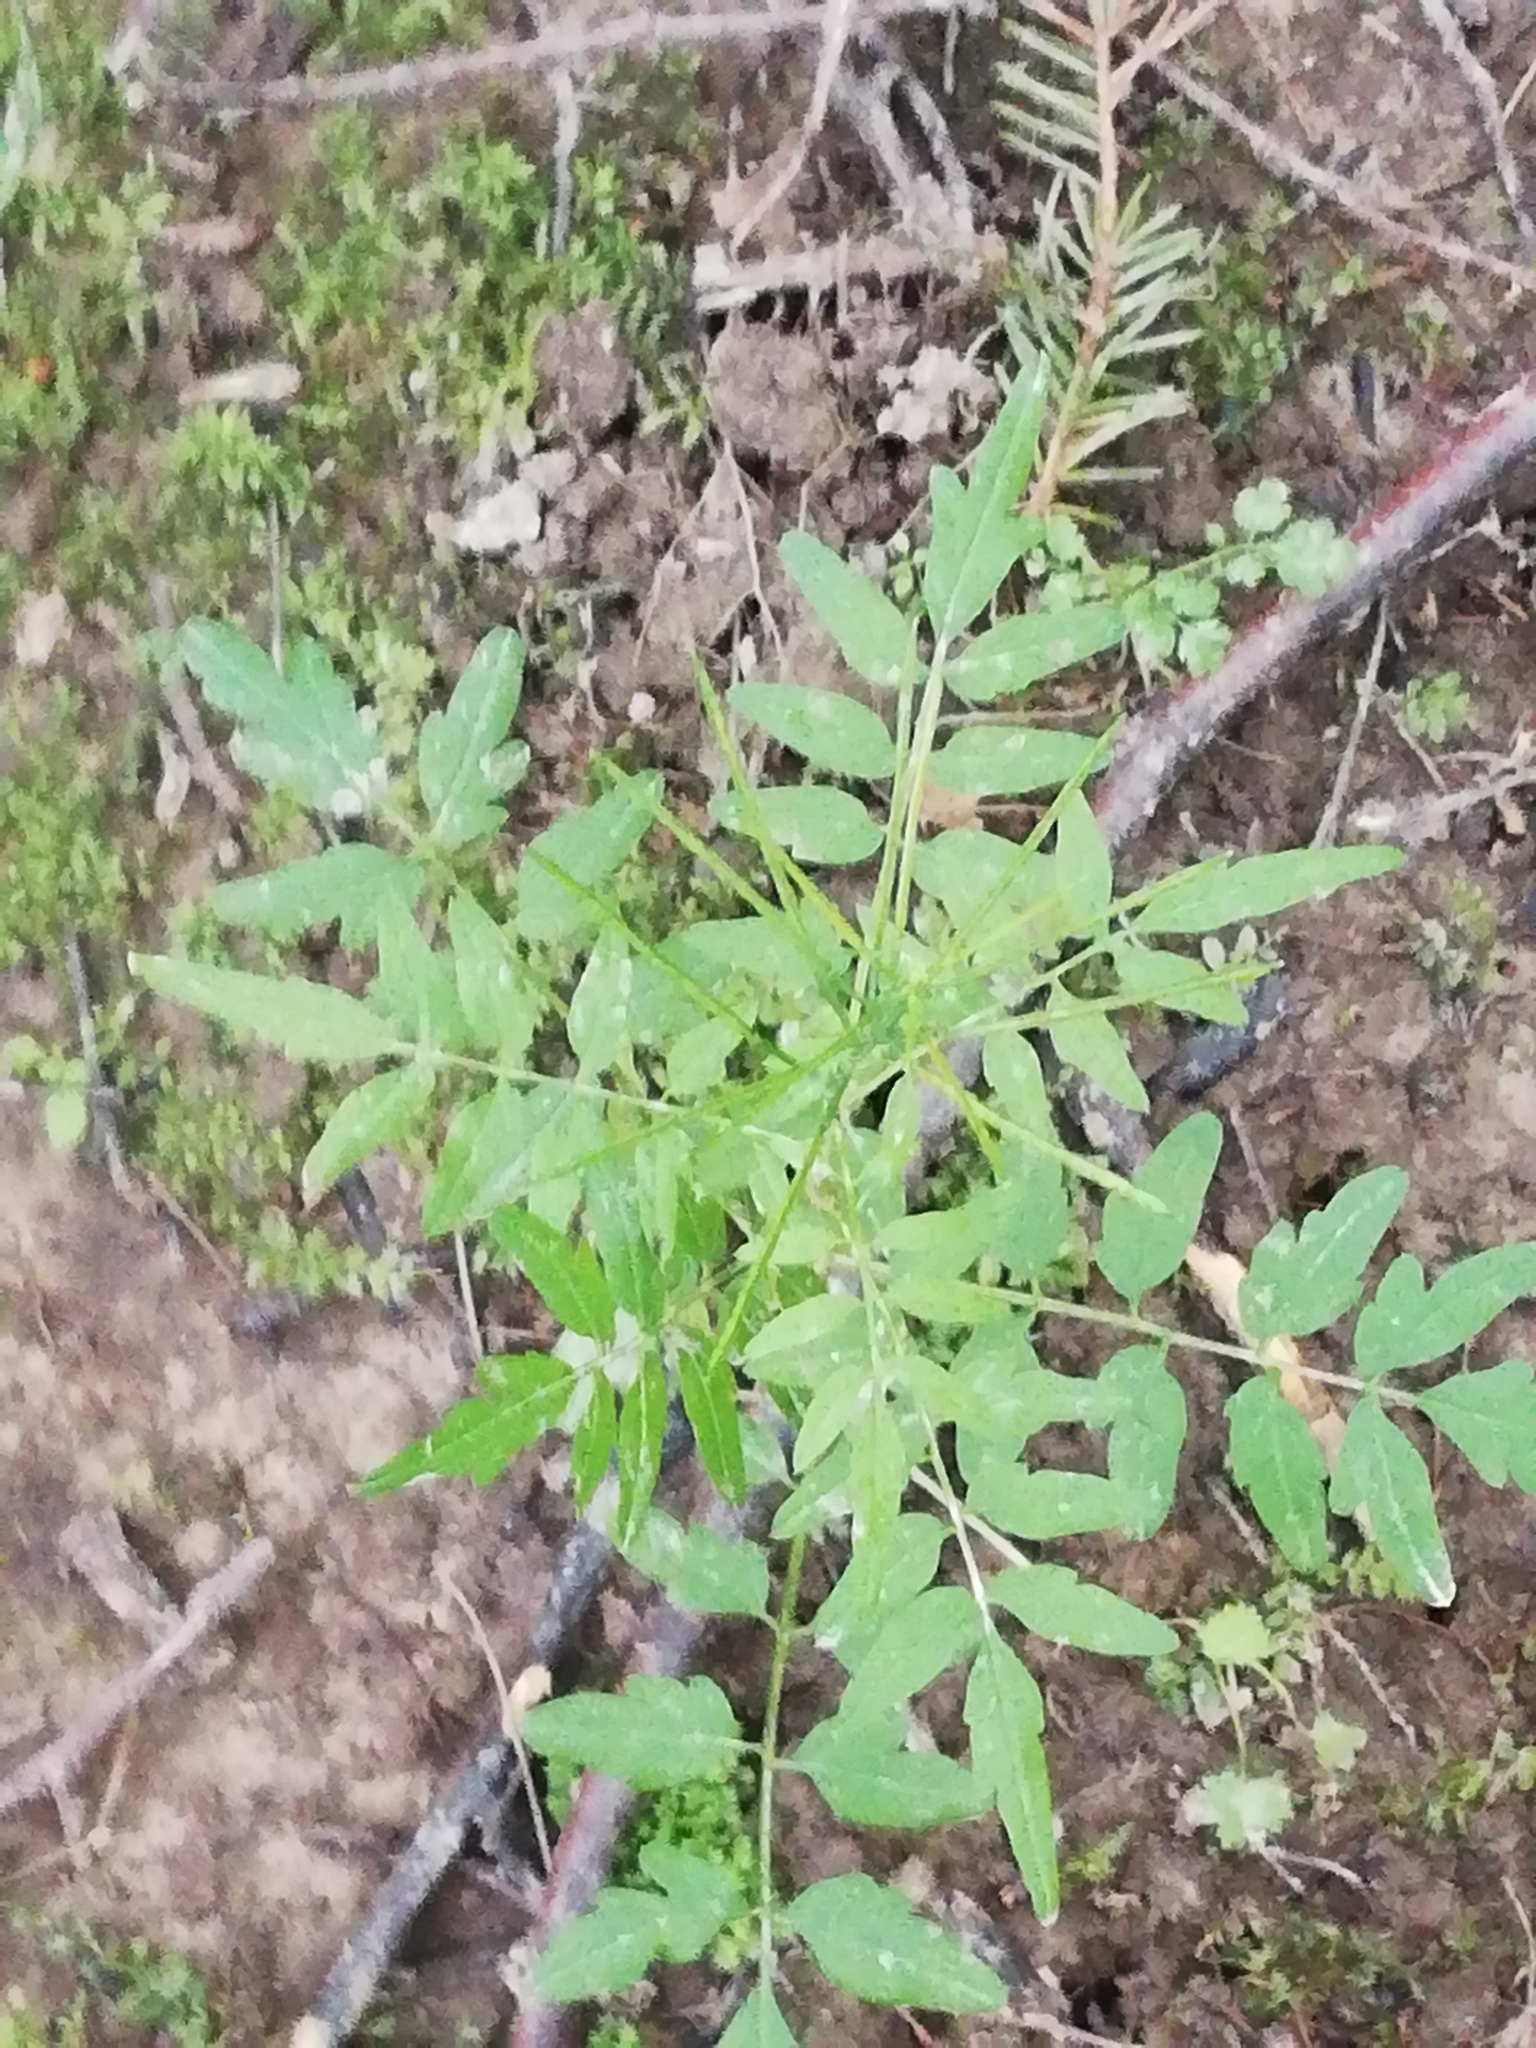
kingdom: Plantae
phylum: Tracheophyta
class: Magnoliopsida
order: Brassicales
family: Brassicaceae
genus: Cardamine
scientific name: Cardamine impatiens
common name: Narrow-leaved bitter-cress
